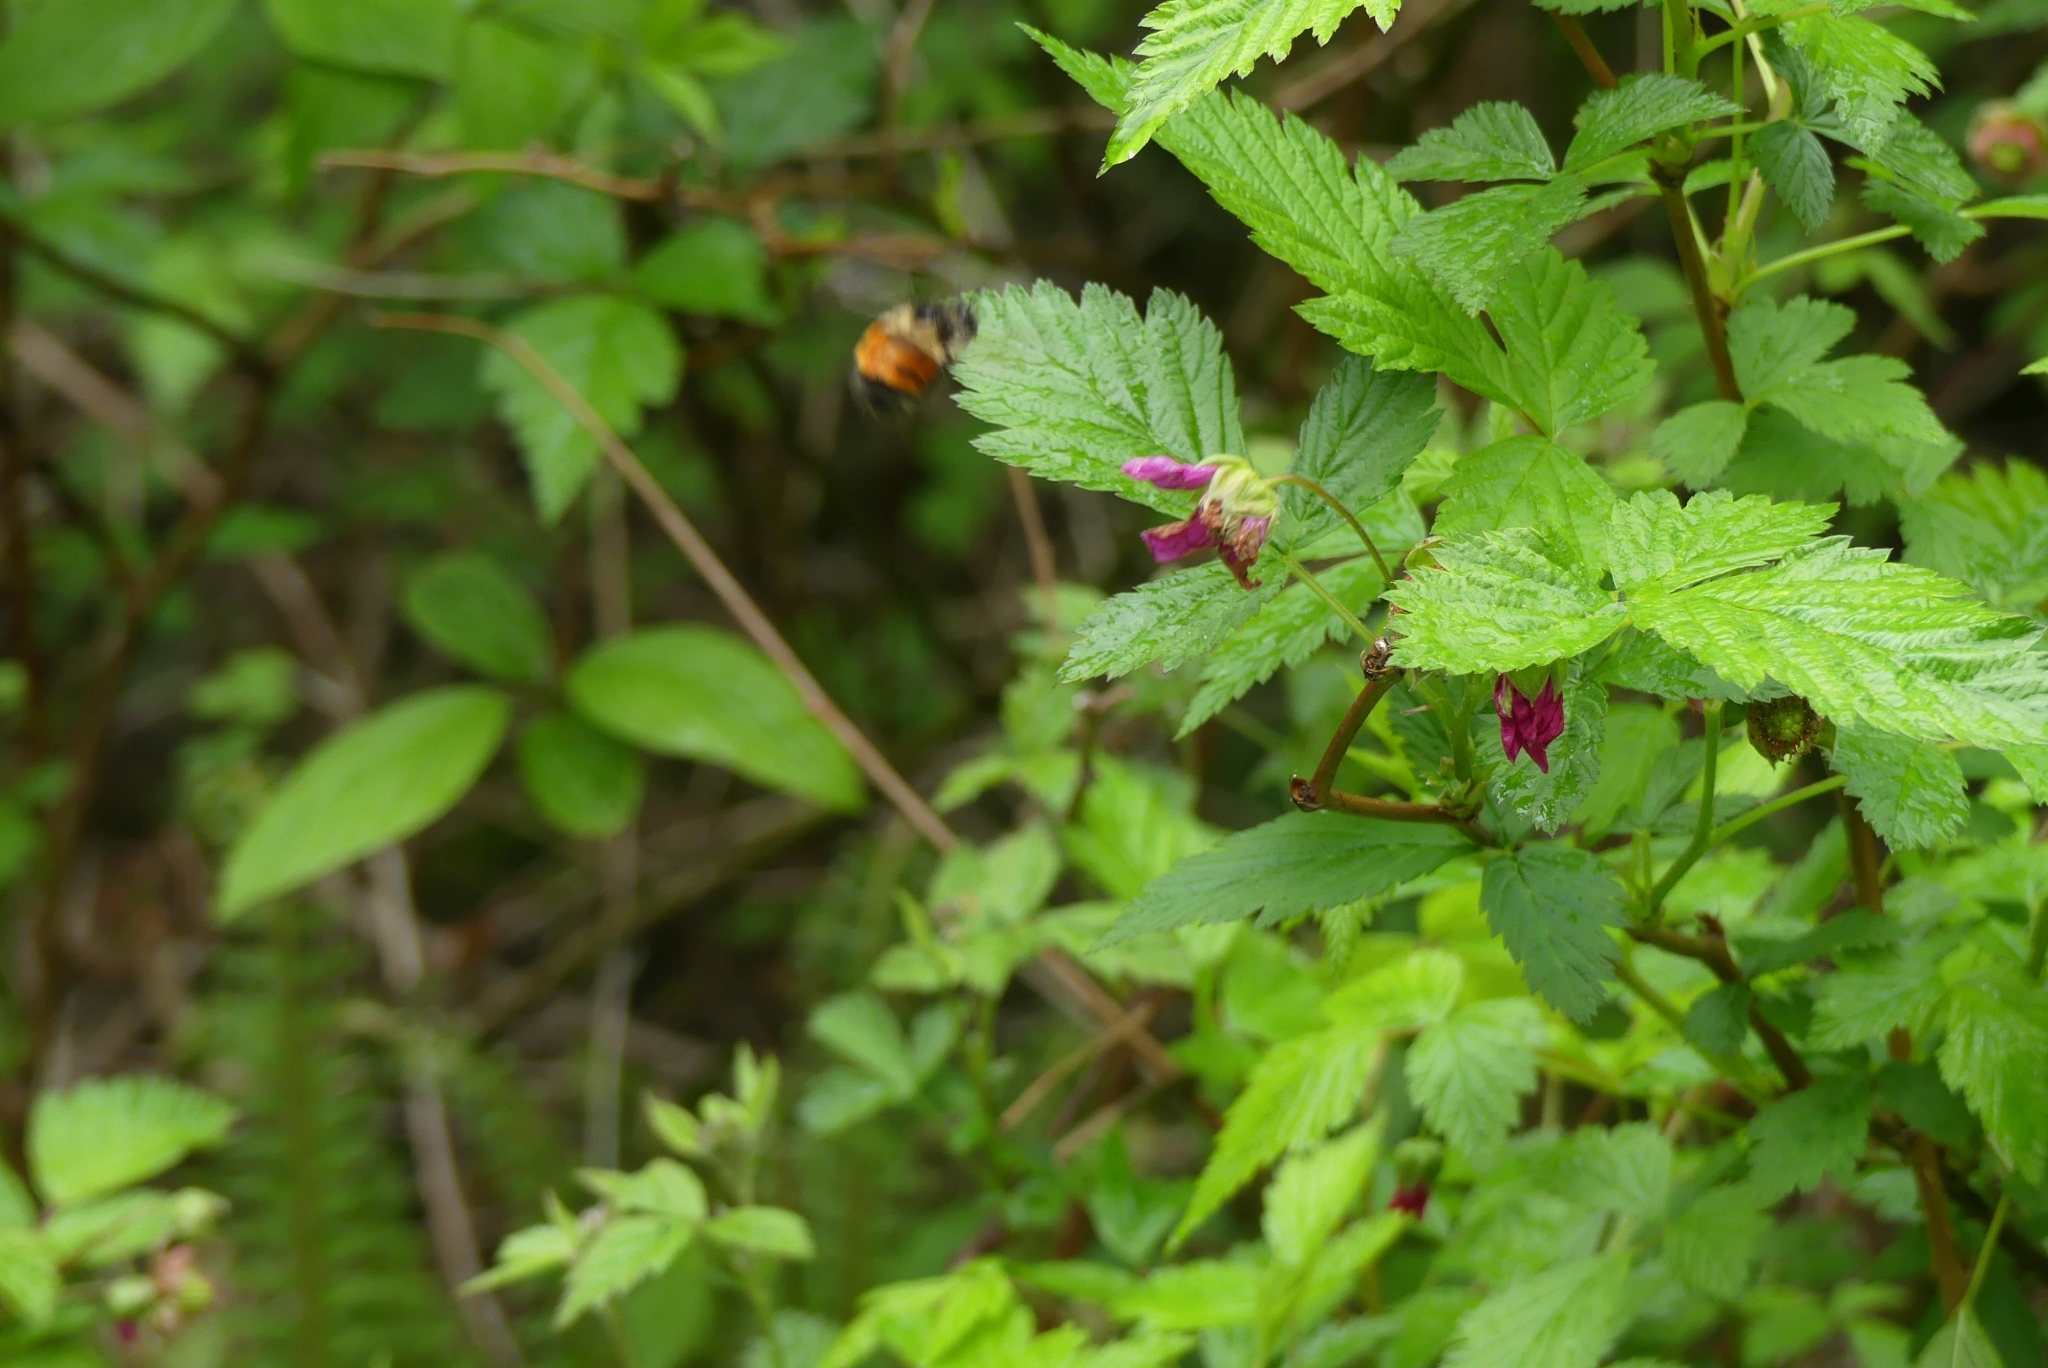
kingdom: Animalia
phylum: Arthropoda
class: Insecta
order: Hymenoptera
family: Apidae
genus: Bombus
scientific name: Bombus melanopygus
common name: Black tail bumble bee
